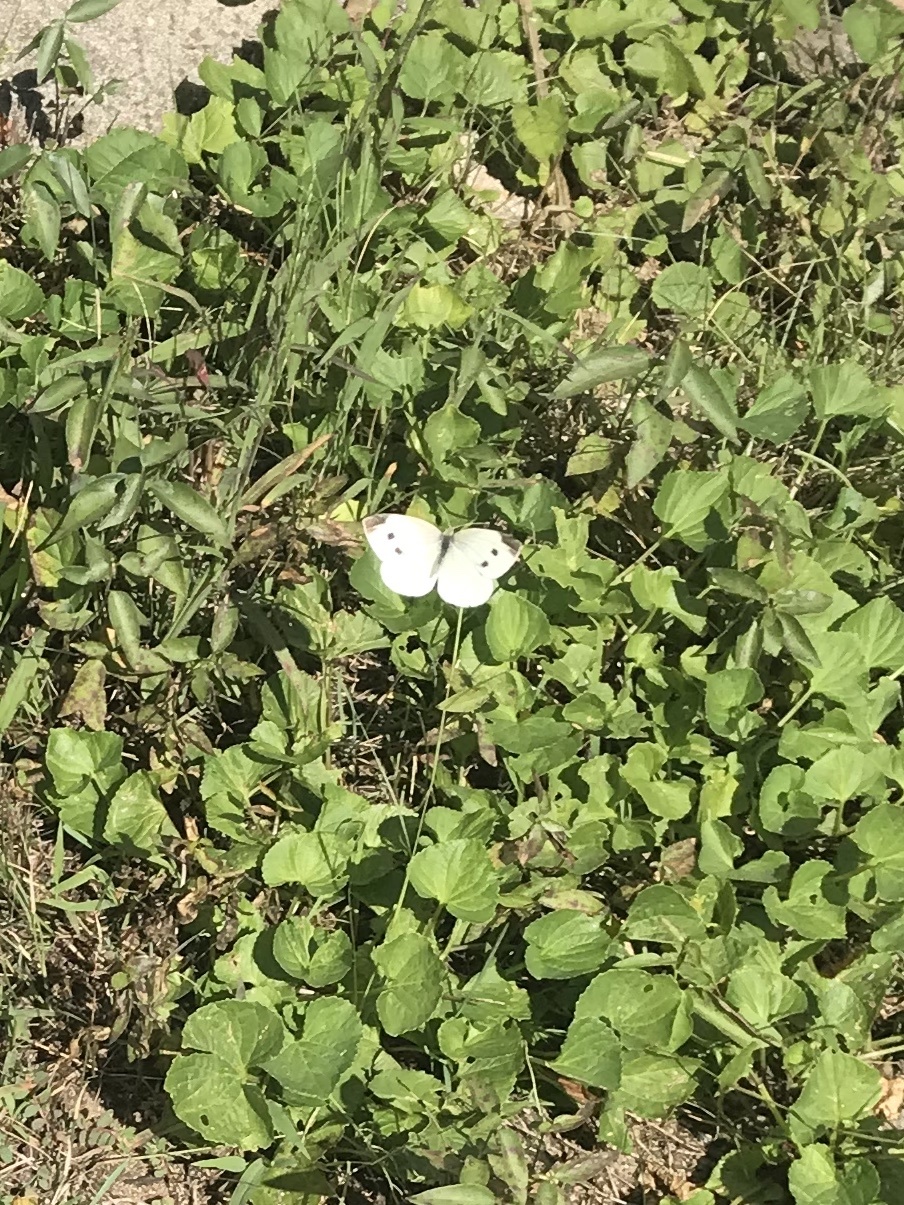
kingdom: Animalia
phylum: Arthropoda
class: Insecta
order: Lepidoptera
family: Pieridae
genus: Pieris
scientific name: Pieris rapae
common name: Small white
